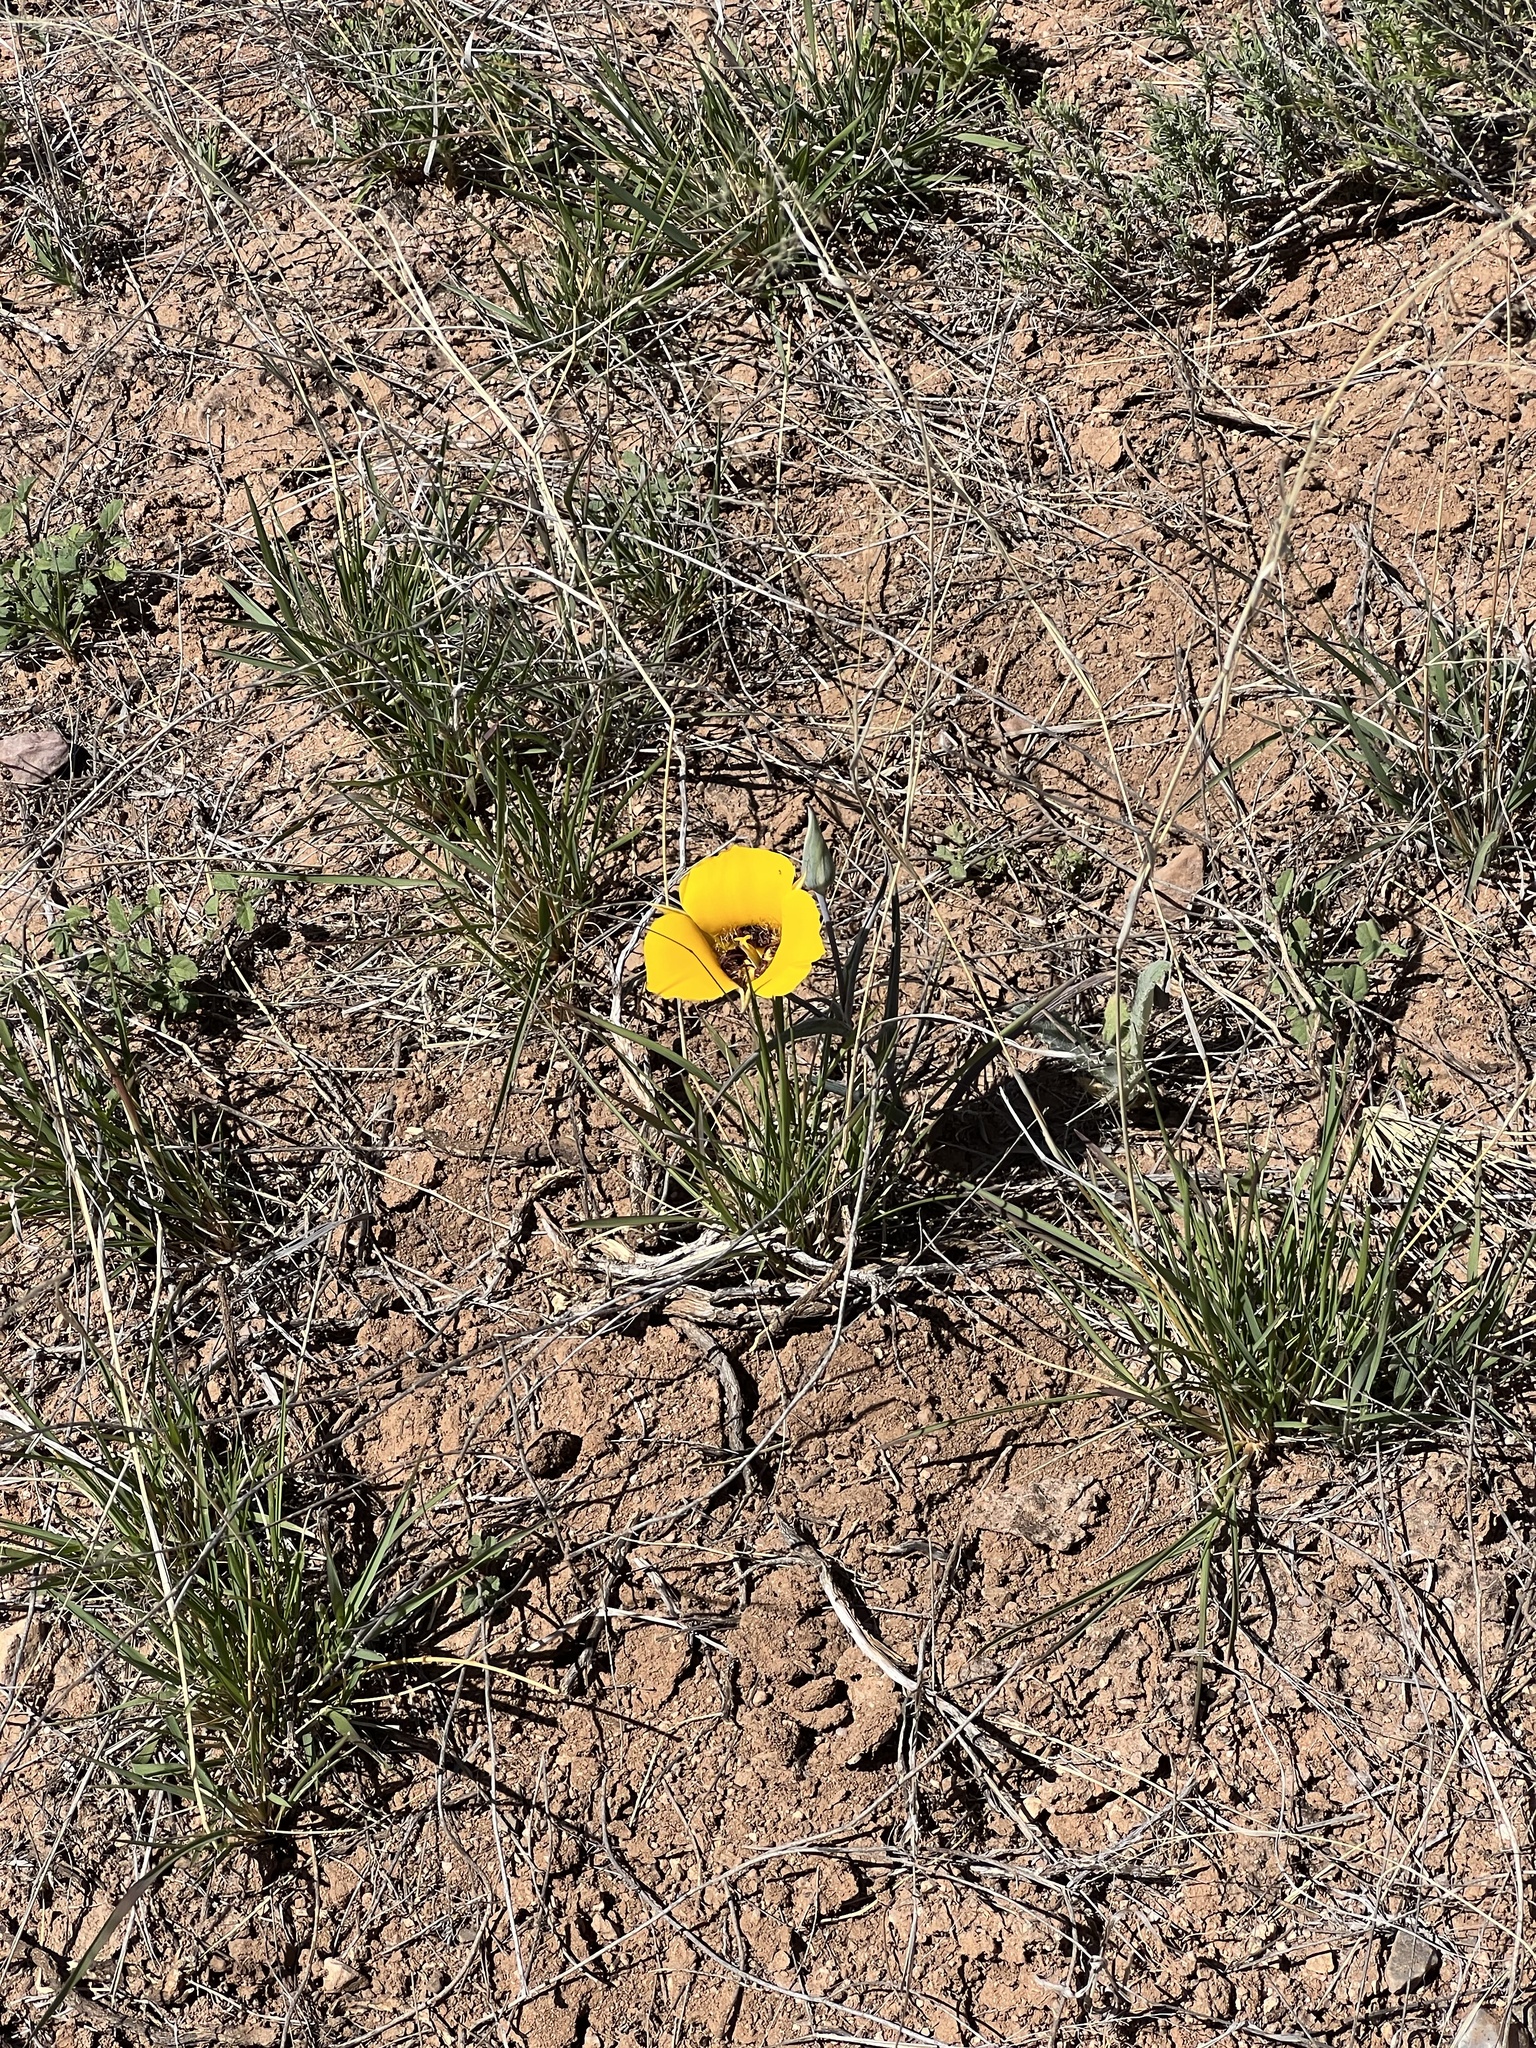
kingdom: Plantae
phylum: Tracheophyta
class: Liliopsida
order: Liliales
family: Liliaceae
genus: Calochortus
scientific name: Calochortus kennedyi
